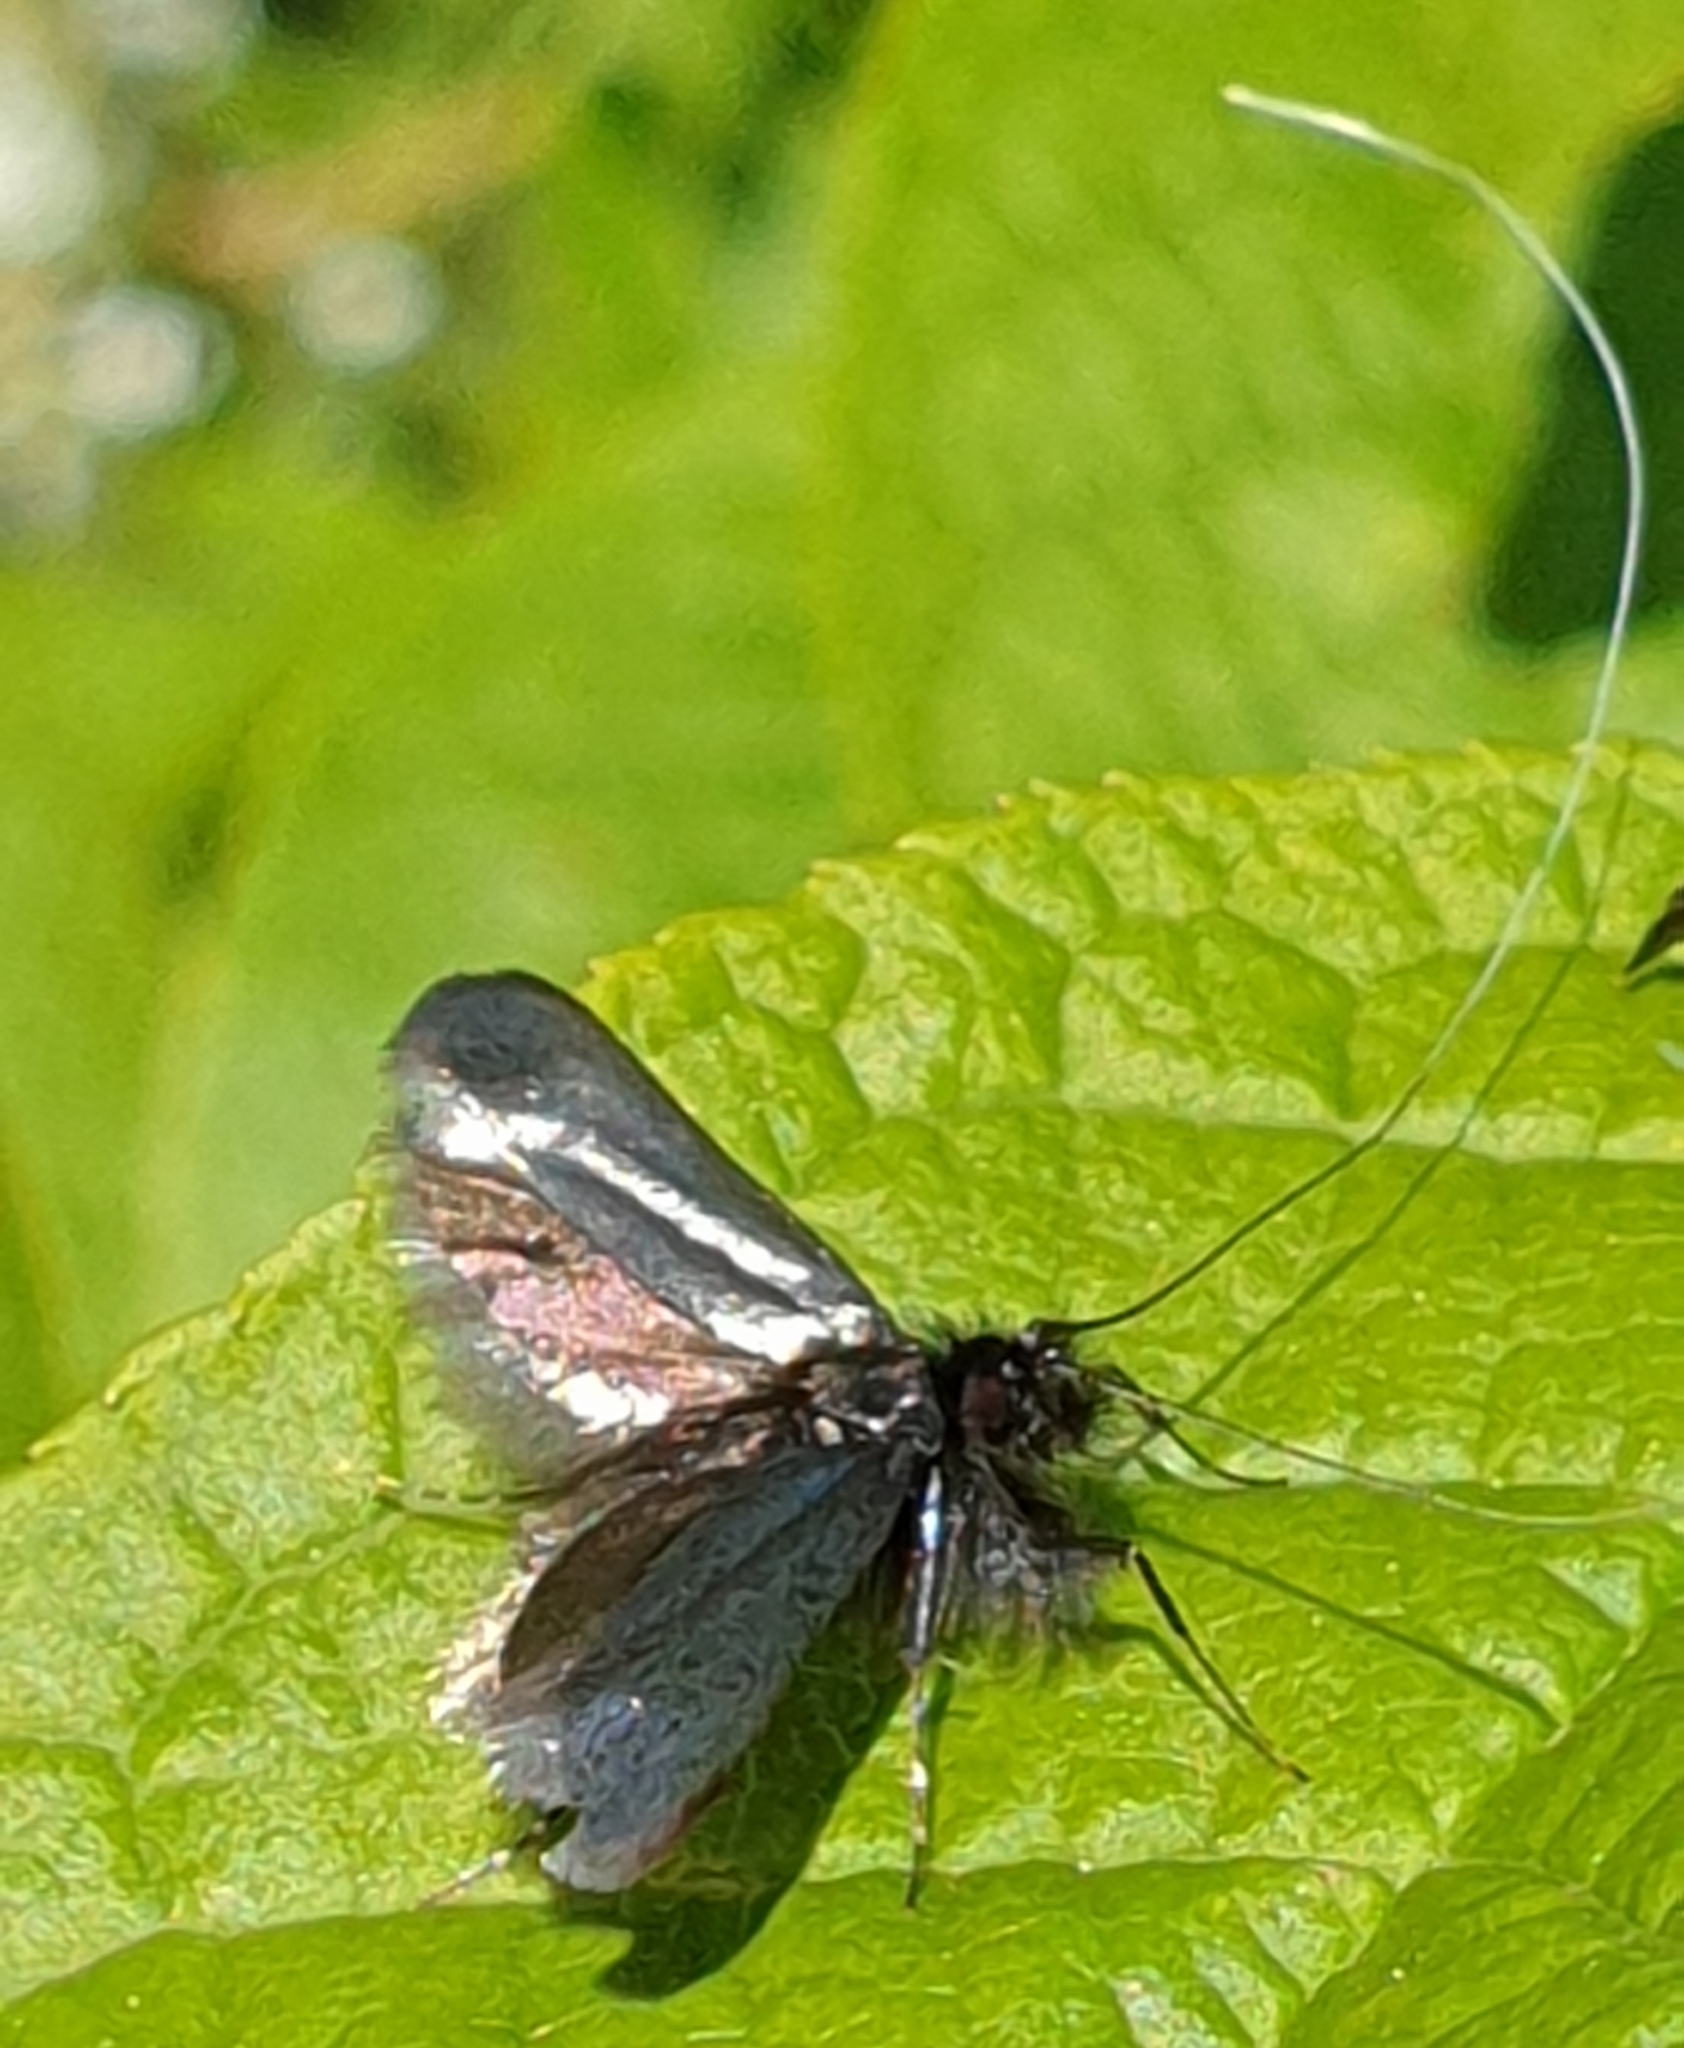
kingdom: Animalia
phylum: Arthropoda
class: Insecta
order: Lepidoptera
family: Adelidae
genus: Adela
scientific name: Adela viridella
